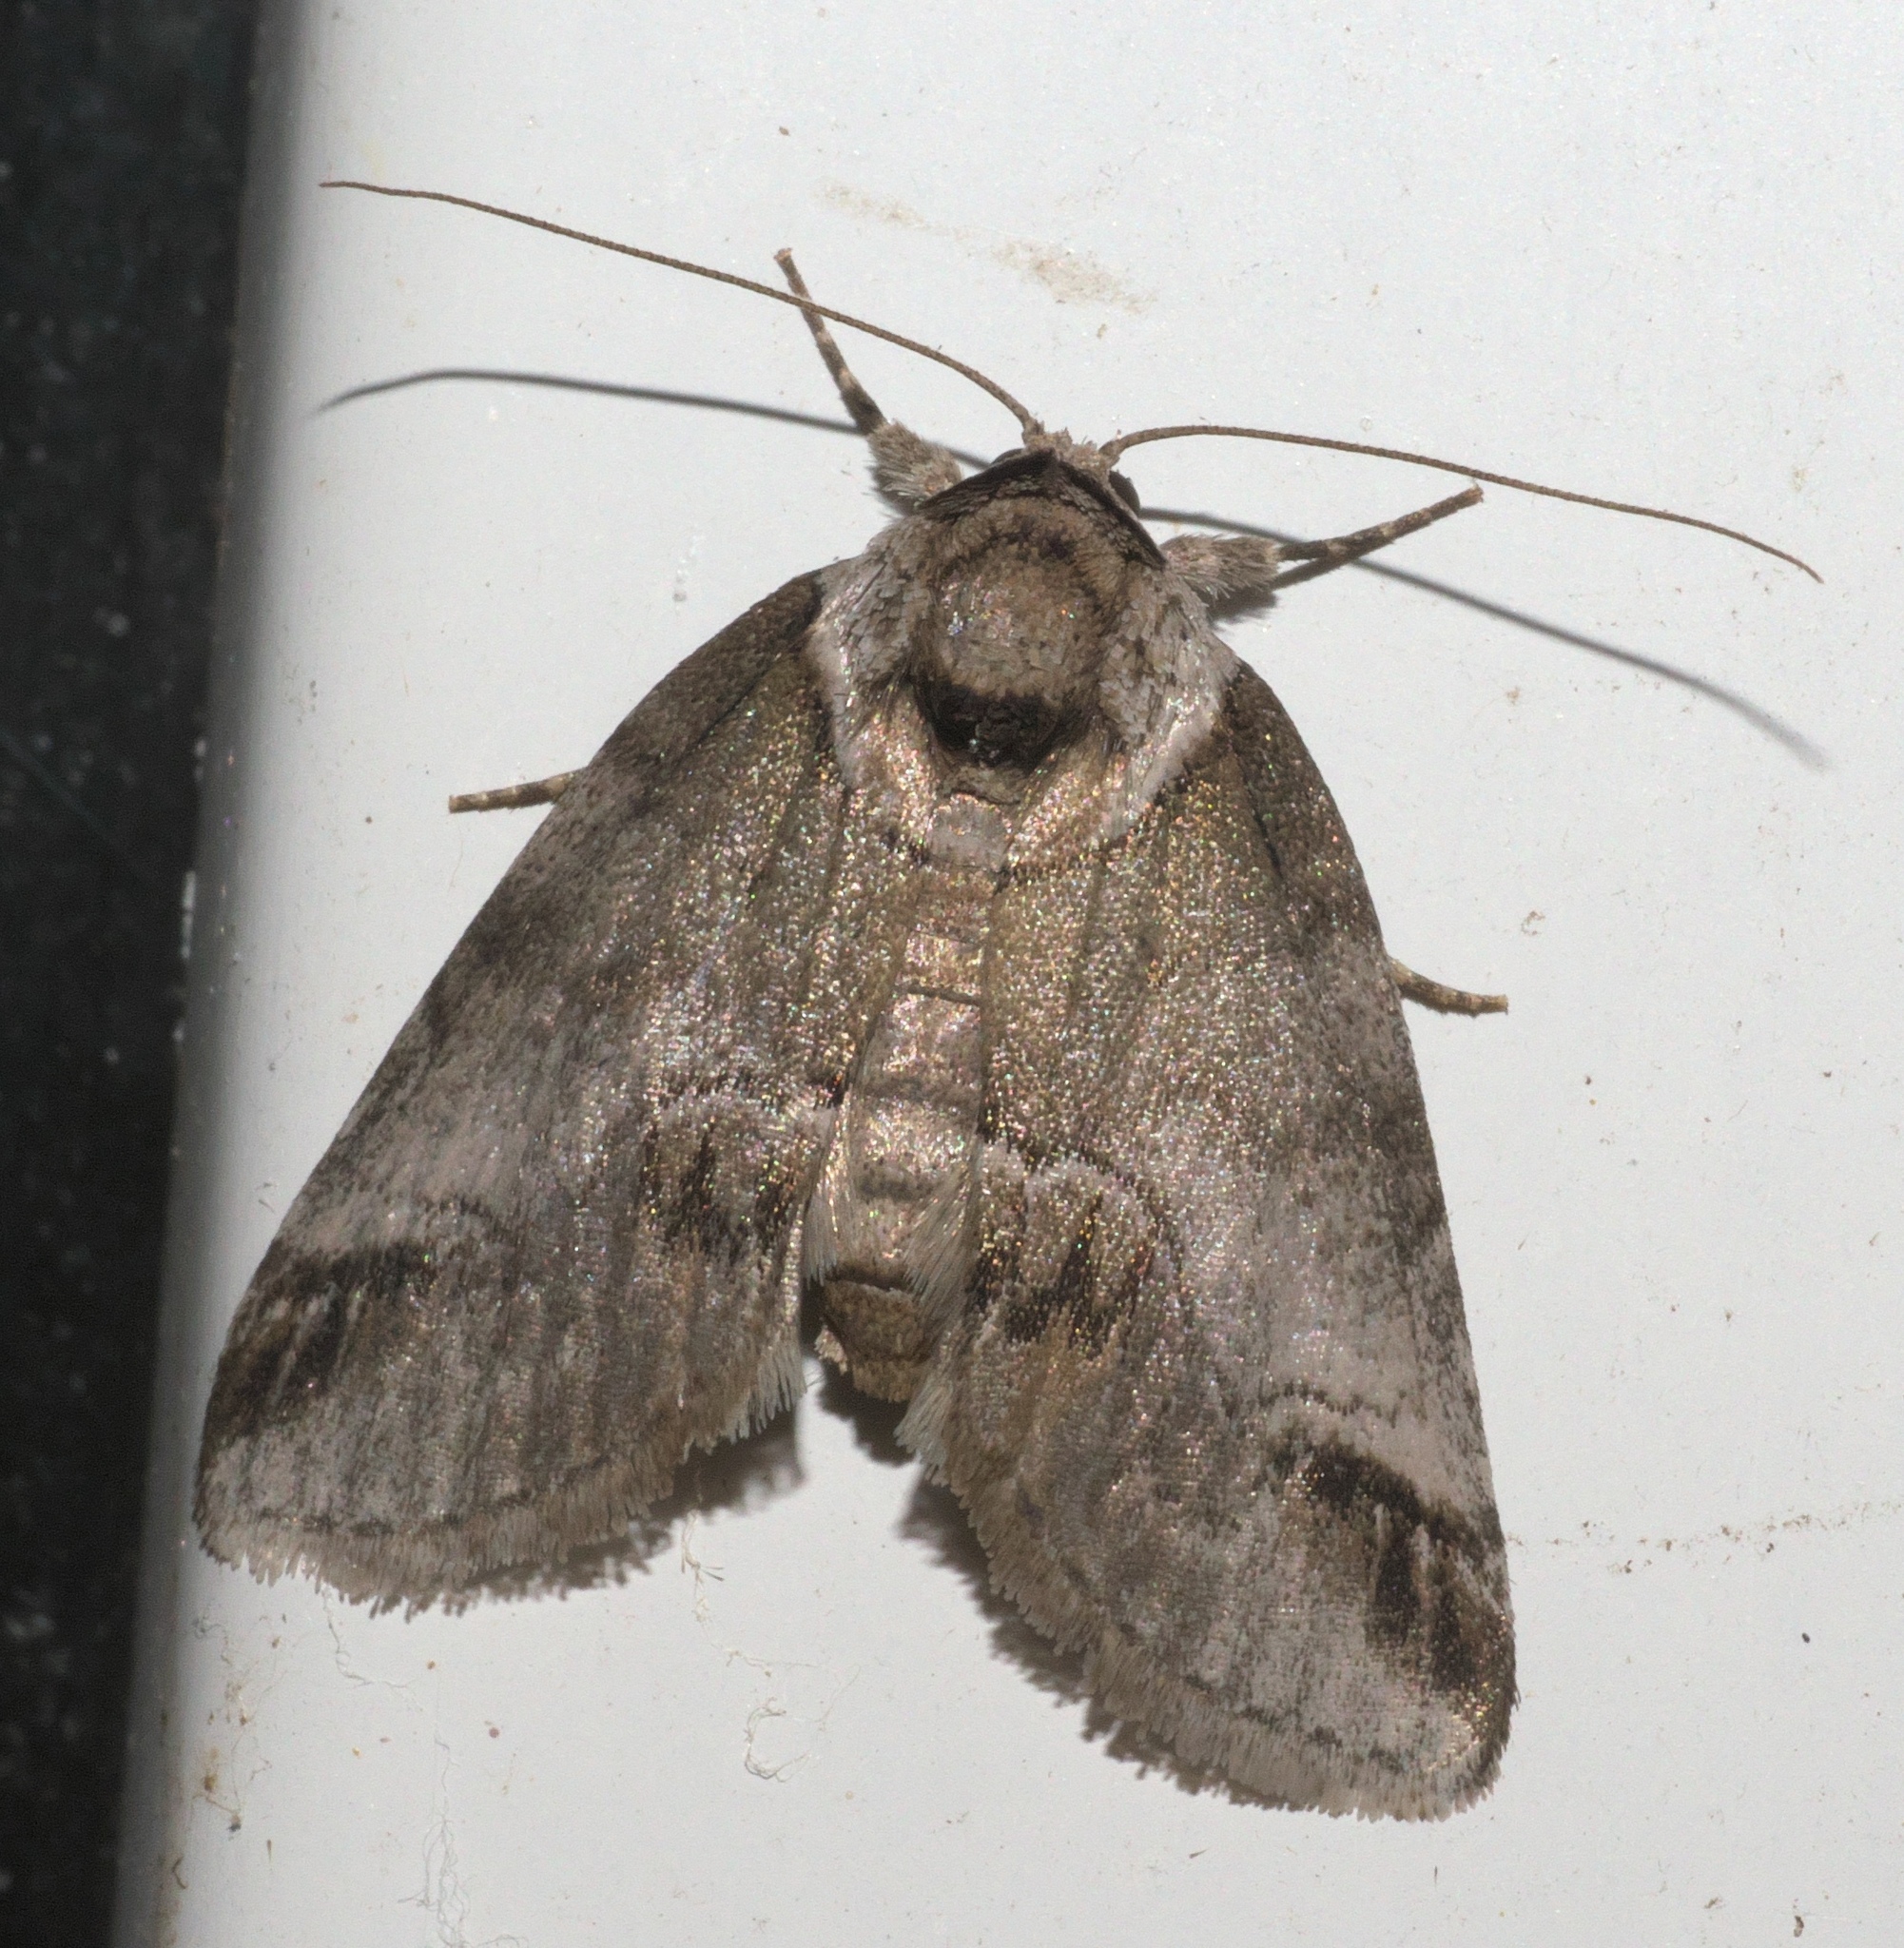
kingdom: Animalia
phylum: Arthropoda
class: Insecta
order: Lepidoptera
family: Nolidae
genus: Baileya
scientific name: Baileya australis
